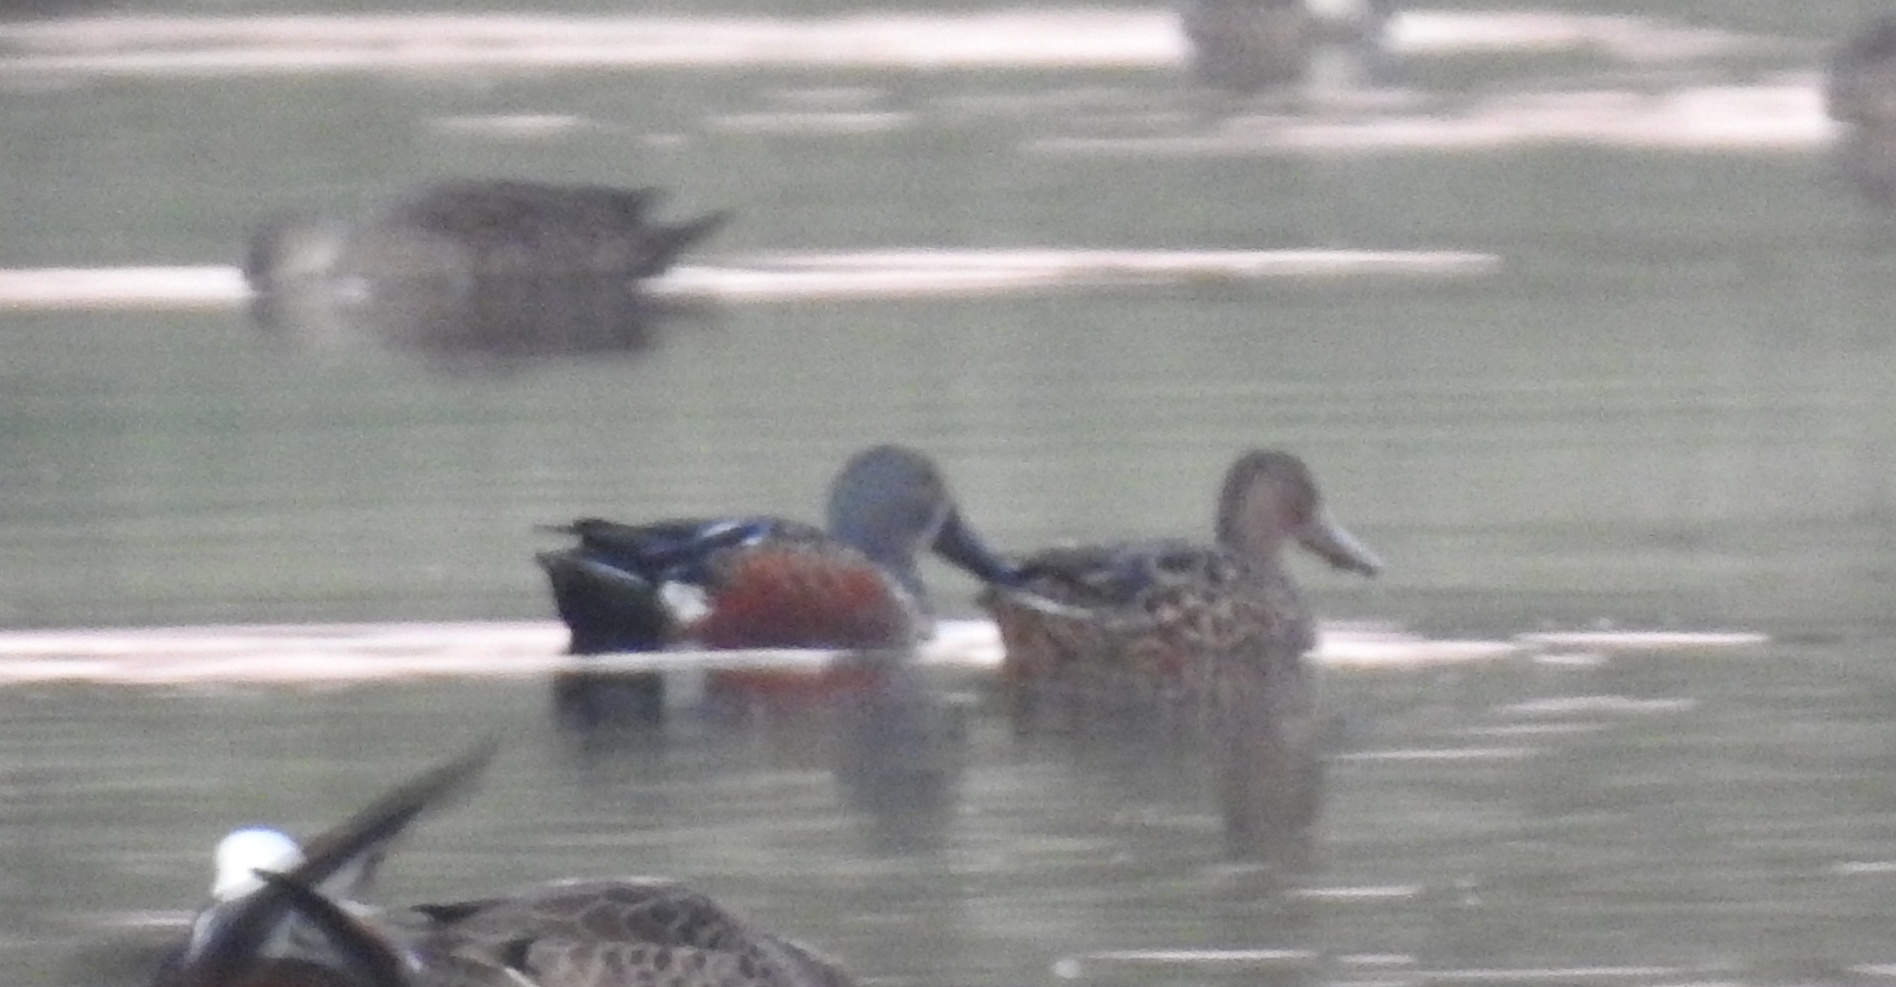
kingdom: Animalia
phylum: Chordata
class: Aves
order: Anseriformes
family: Anatidae
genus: Spatula
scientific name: Spatula rhynchotis
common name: Australian shoveler
